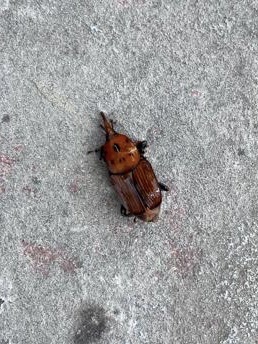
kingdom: Animalia
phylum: Arthropoda
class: Insecta
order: Coleoptera
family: Dryophthoridae
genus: Rhynchophorus
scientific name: Rhynchophorus ferrugineus
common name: Red palm weevil
